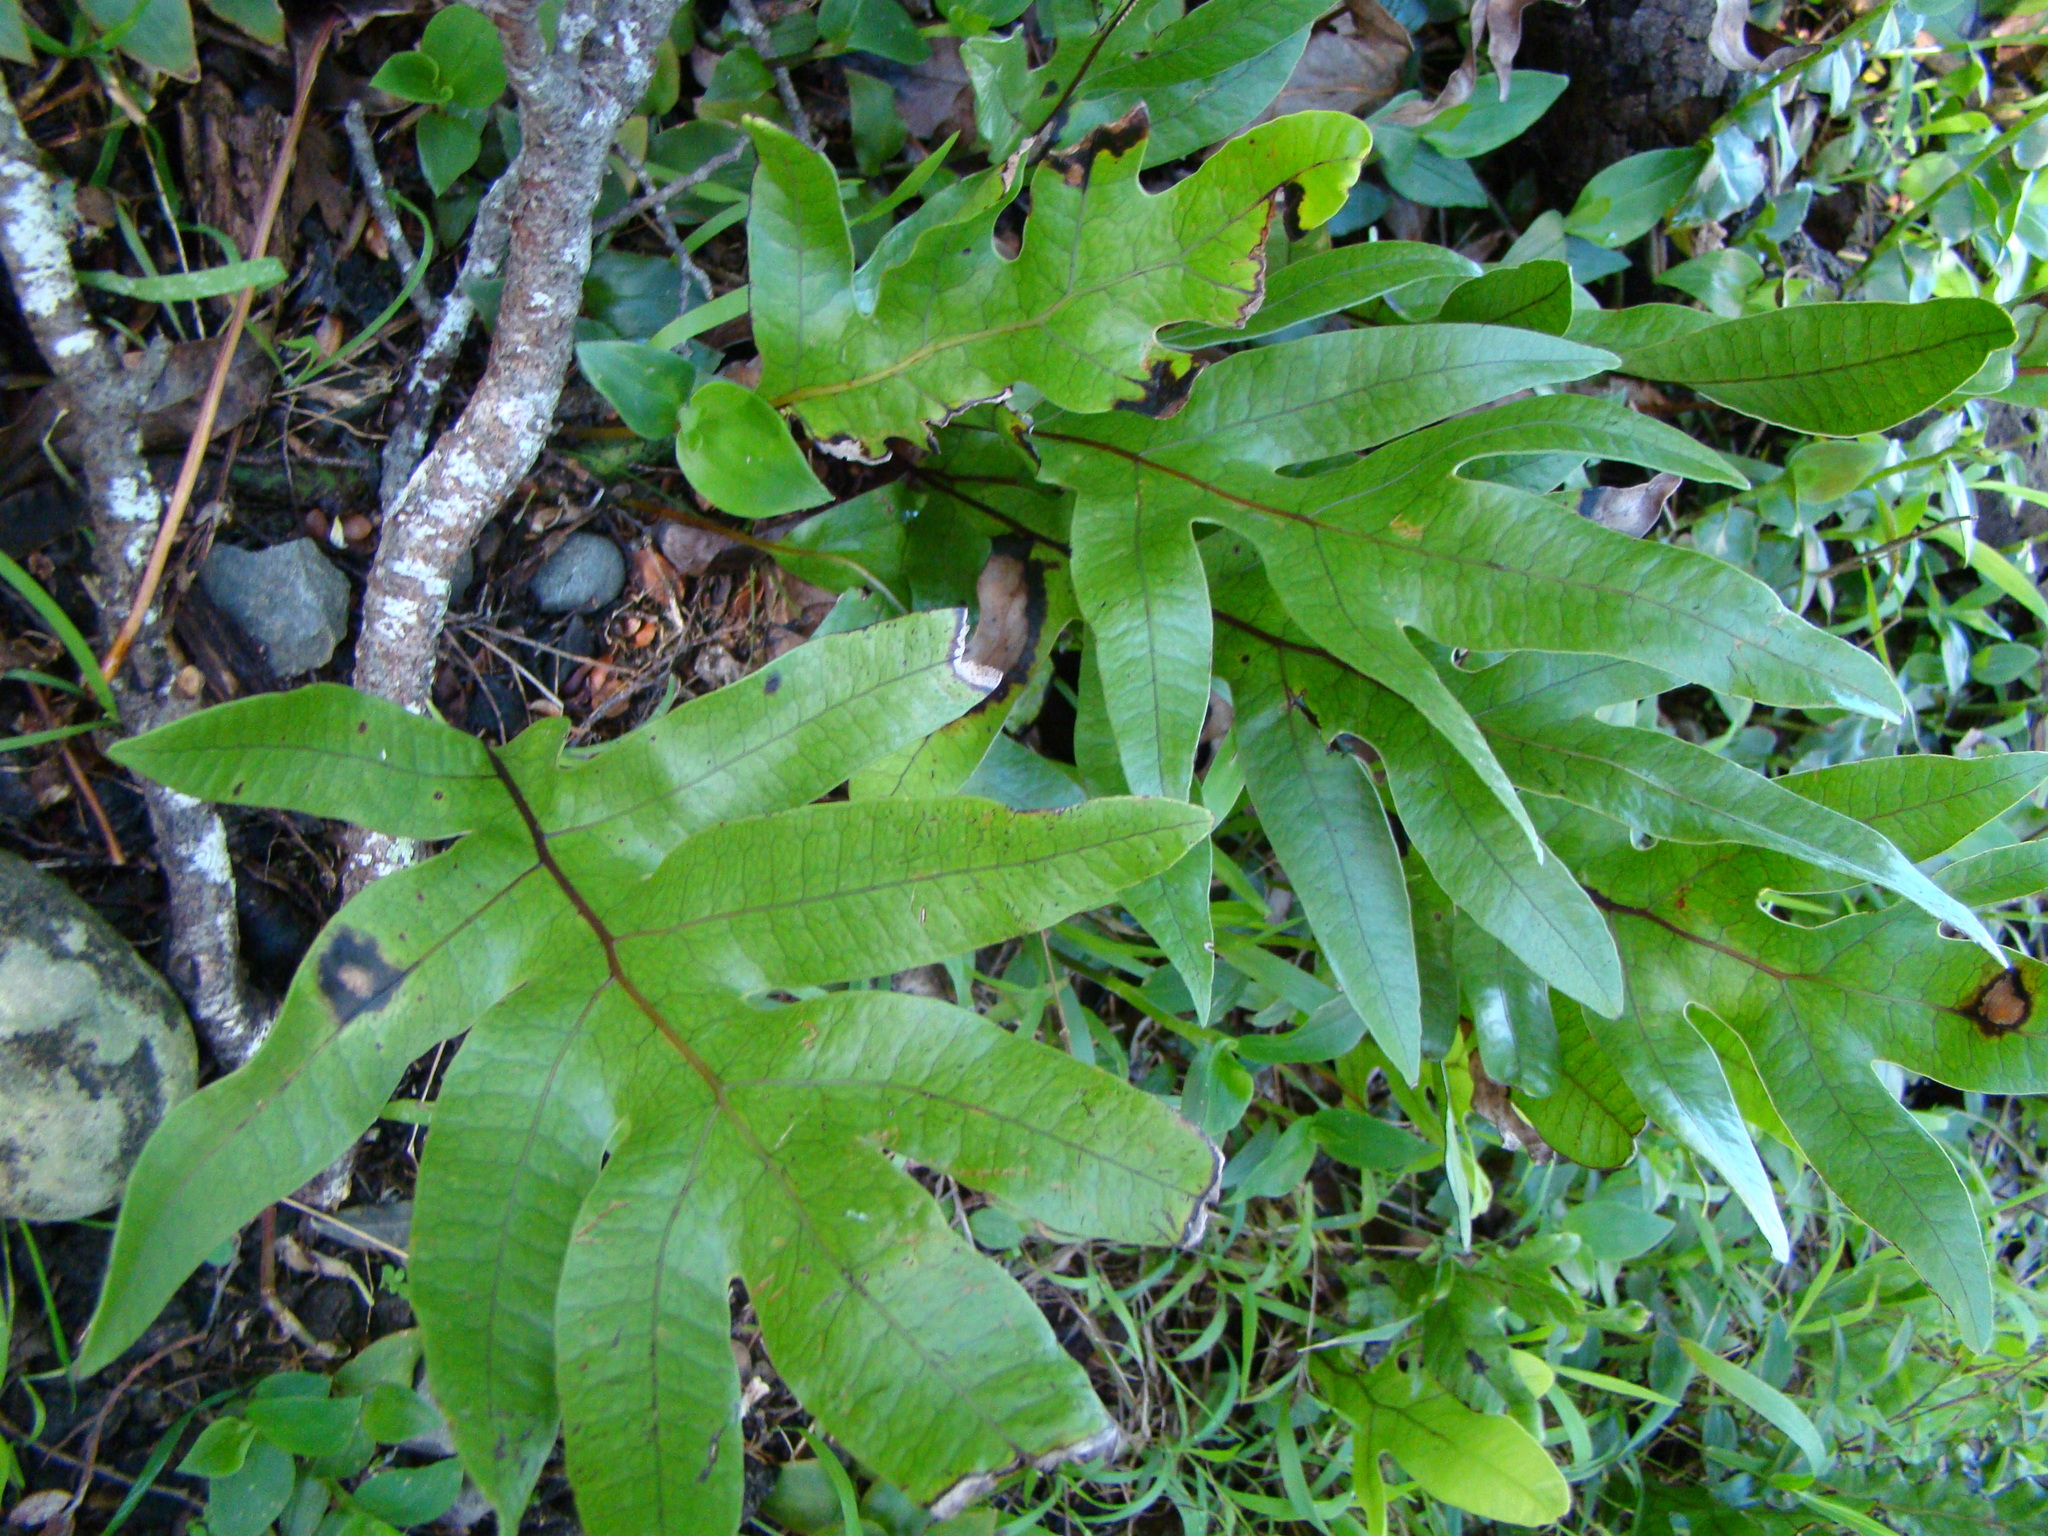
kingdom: Plantae
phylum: Tracheophyta
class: Polypodiopsida
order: Polypodiales
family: Polypodiaceae
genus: Lecanopteris
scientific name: Lecanopteris pustulata
